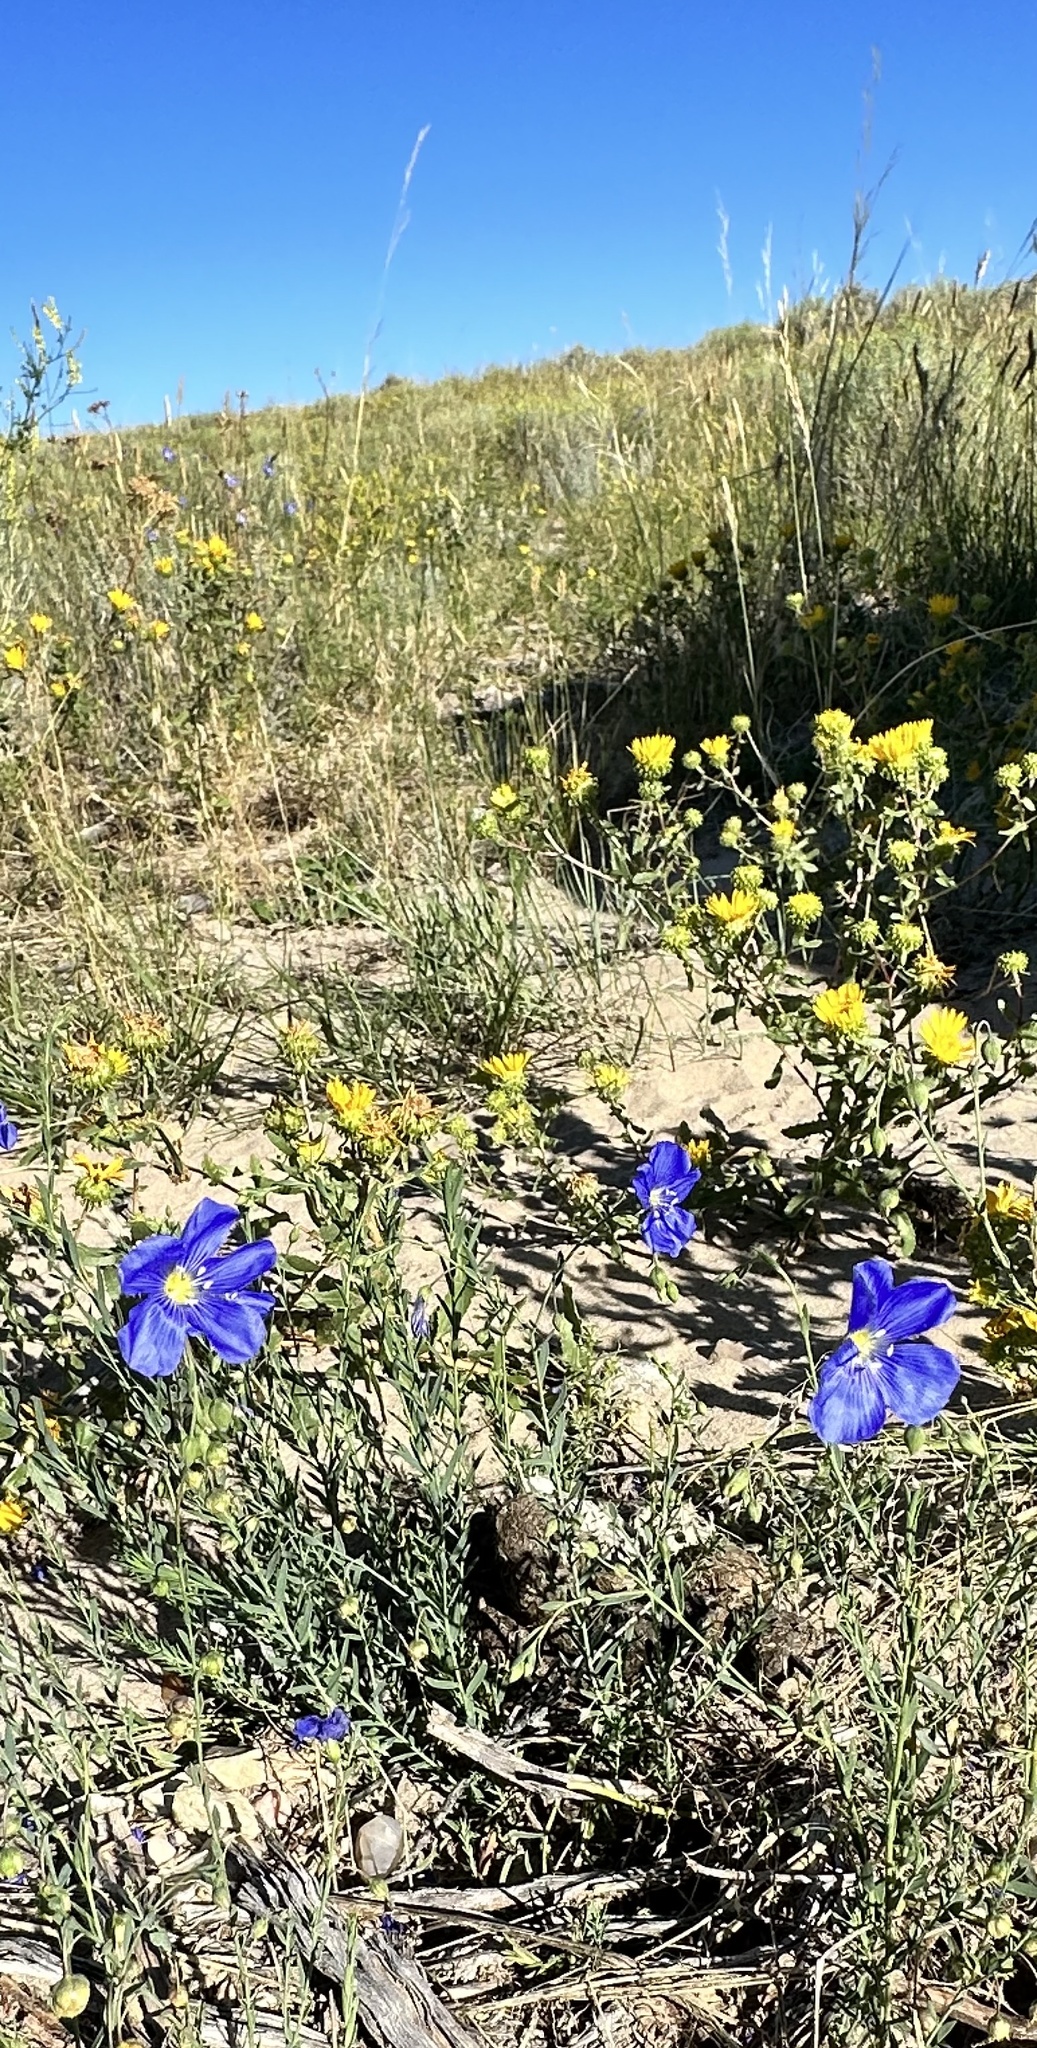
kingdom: Plantae
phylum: Tracheophyta
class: Magnoliopsida
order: Malpighiales
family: Linaceae
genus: Linum
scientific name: Linum lewisii
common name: Prairie flax
